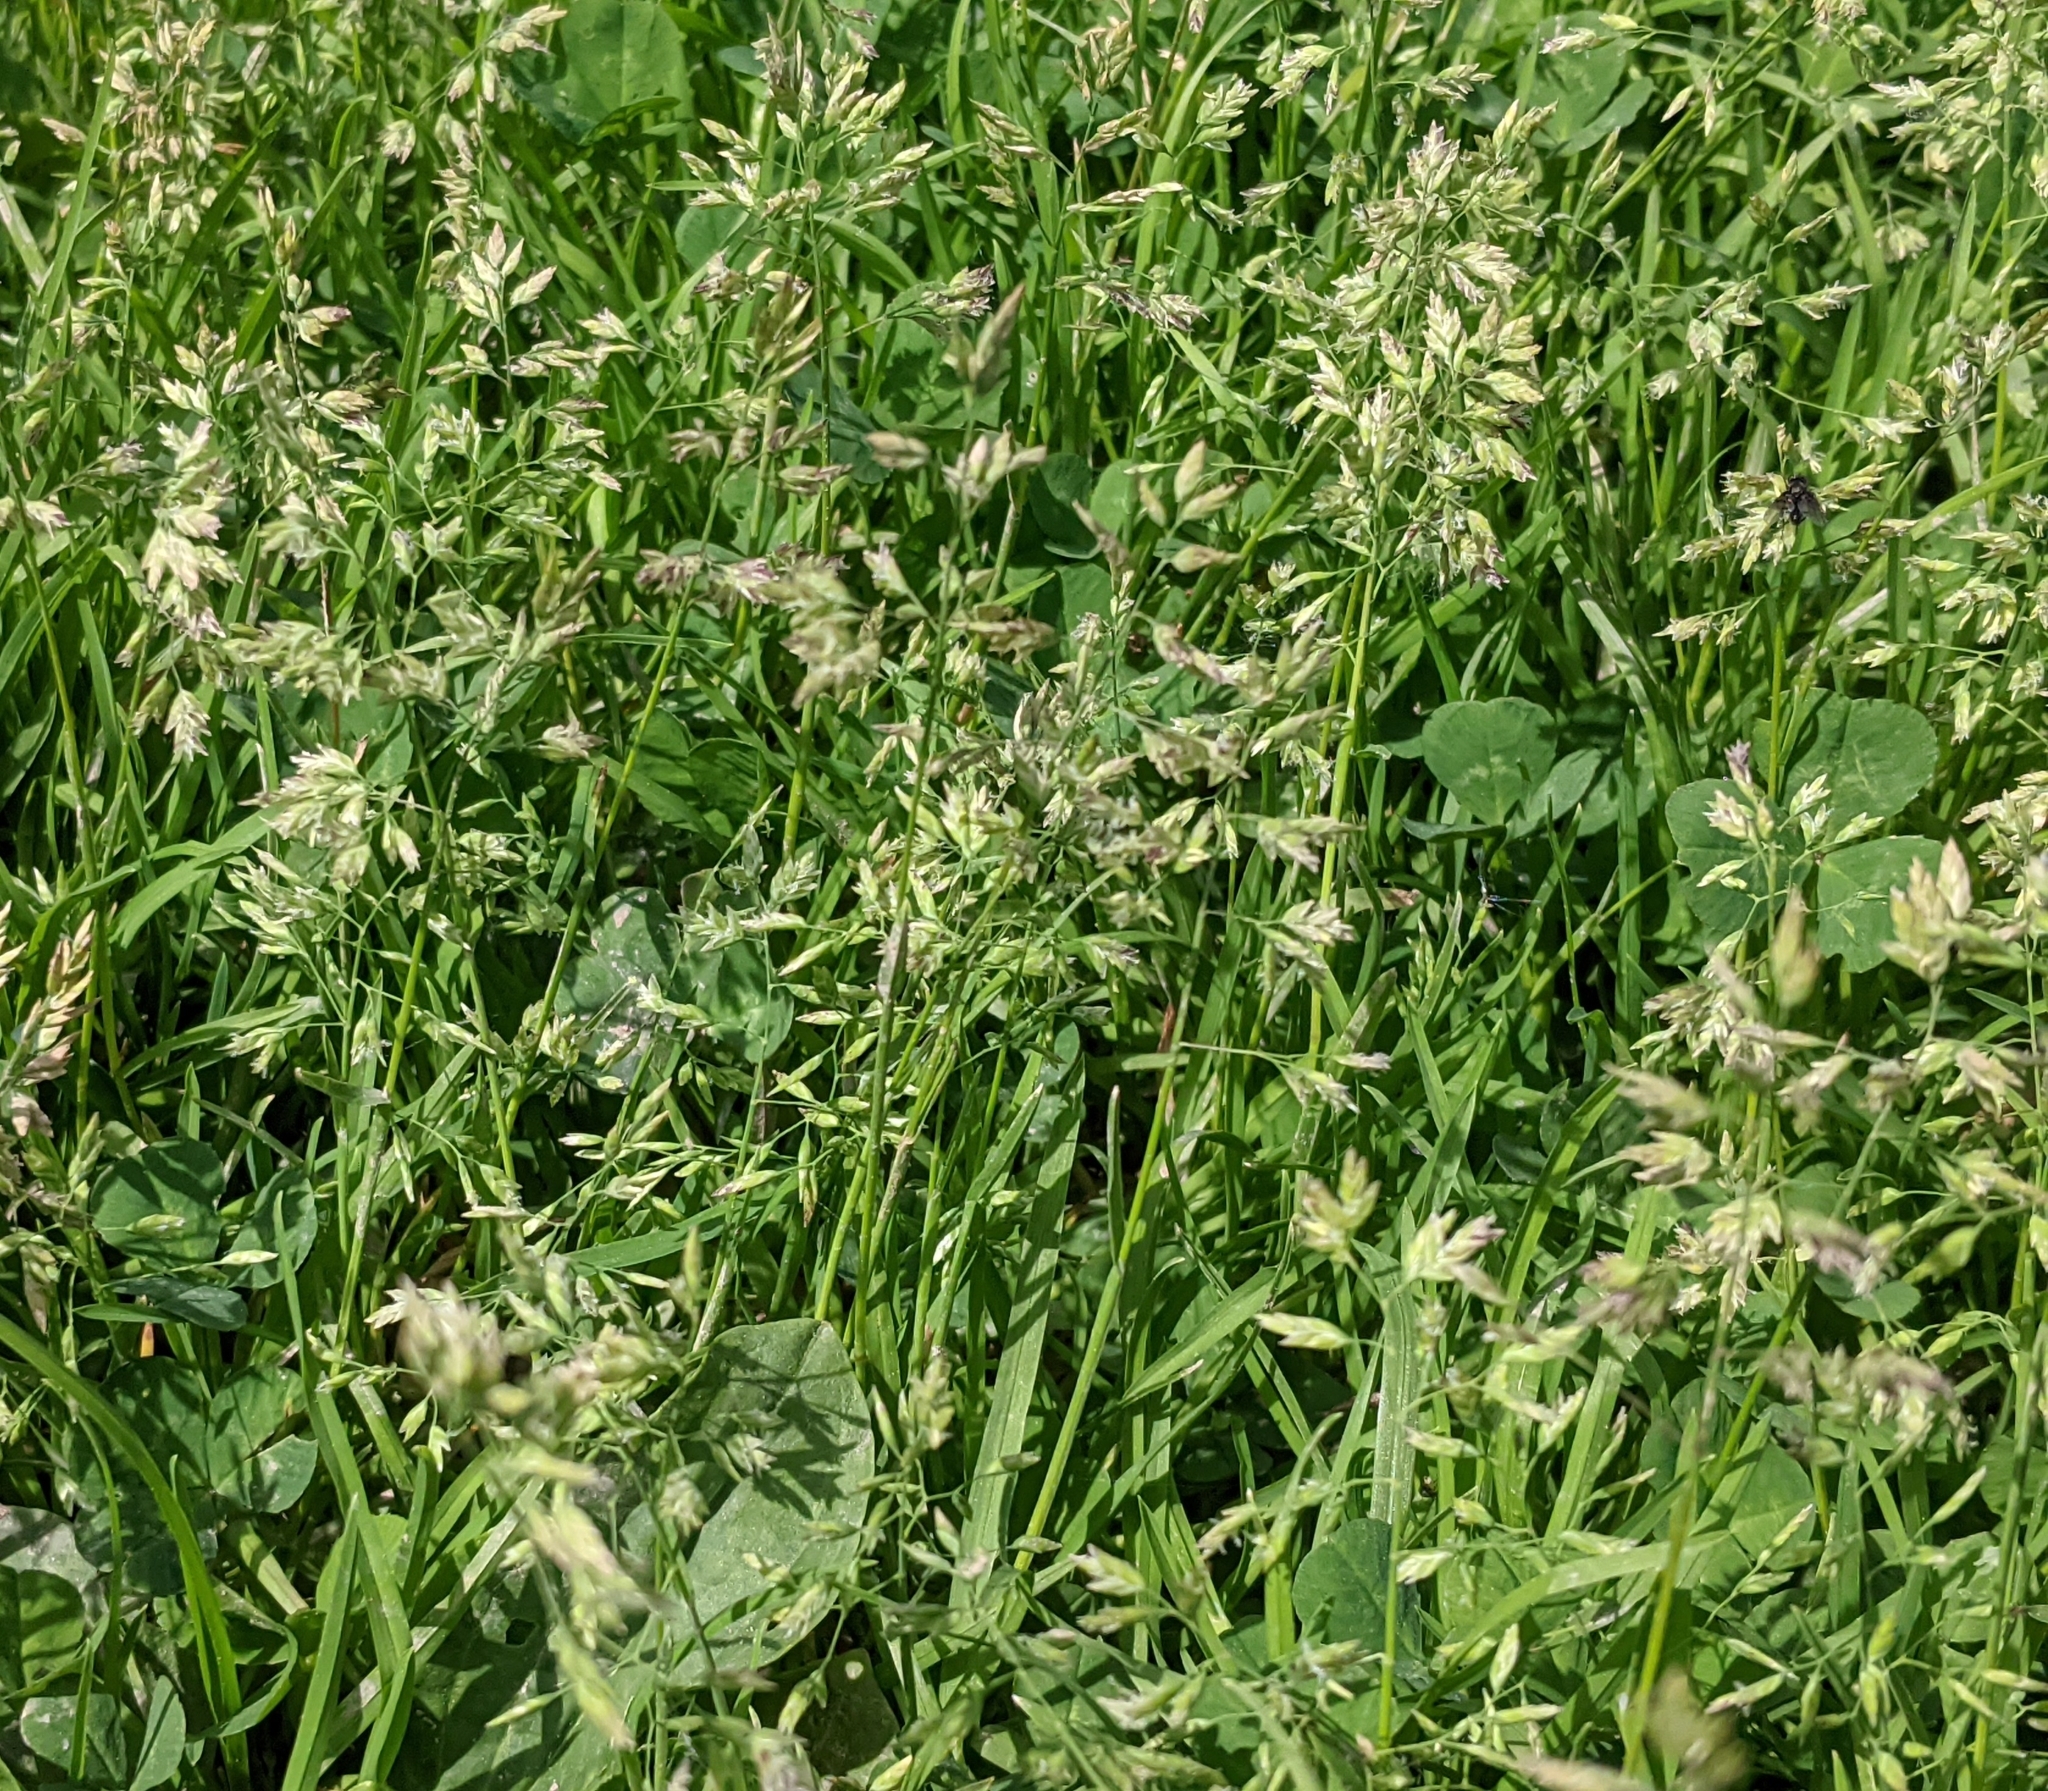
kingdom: Plantae
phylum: Tracheophyta
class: Liliopsida
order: Poales
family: Poaceae
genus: Poa
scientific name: Poa annua
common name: Annual bluegrass
